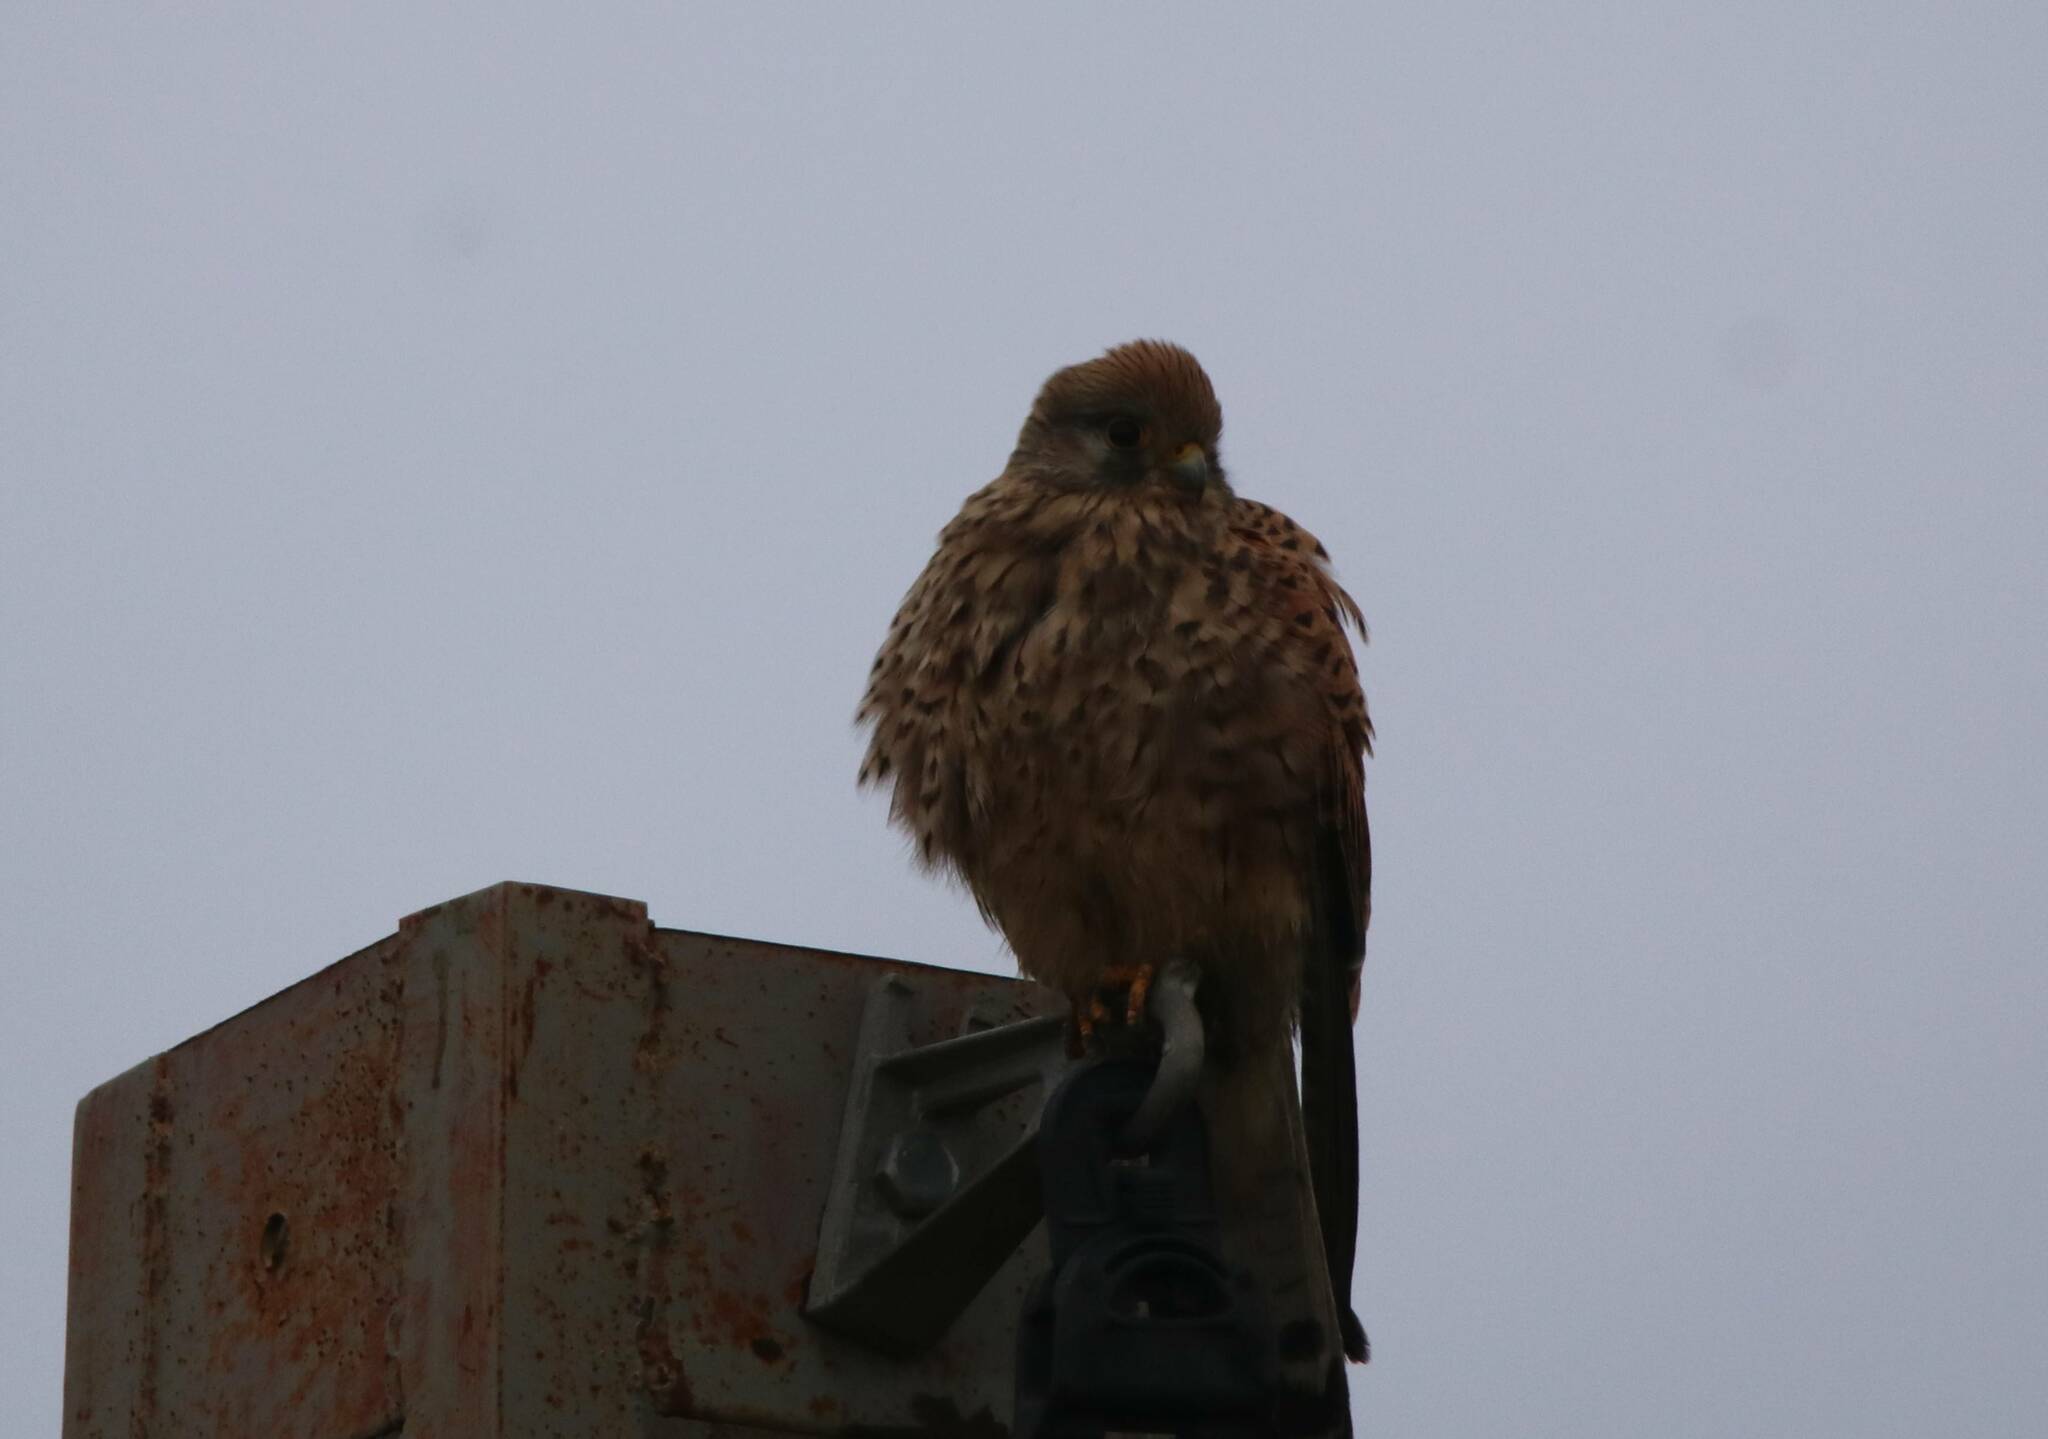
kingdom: Animalia
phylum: Chordata
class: Aves
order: Falconiformes
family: Falconidae
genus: Falco
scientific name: Falco tinnunculus
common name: Common kestrel
